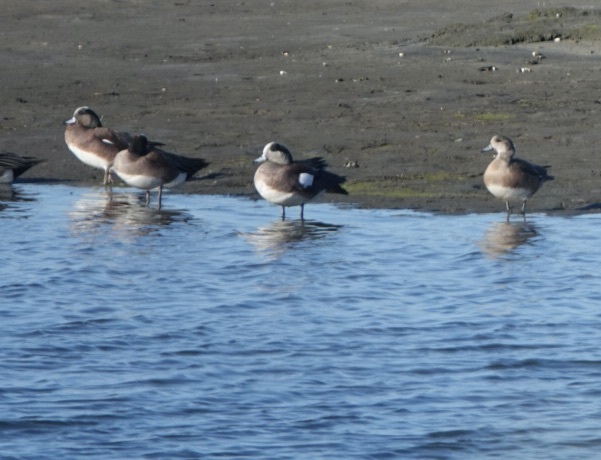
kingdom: Animalia
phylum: Chordata
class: Aves
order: Anseriformes
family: Anatidae
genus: Mareca
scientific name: Mareca americana
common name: American wigeon
